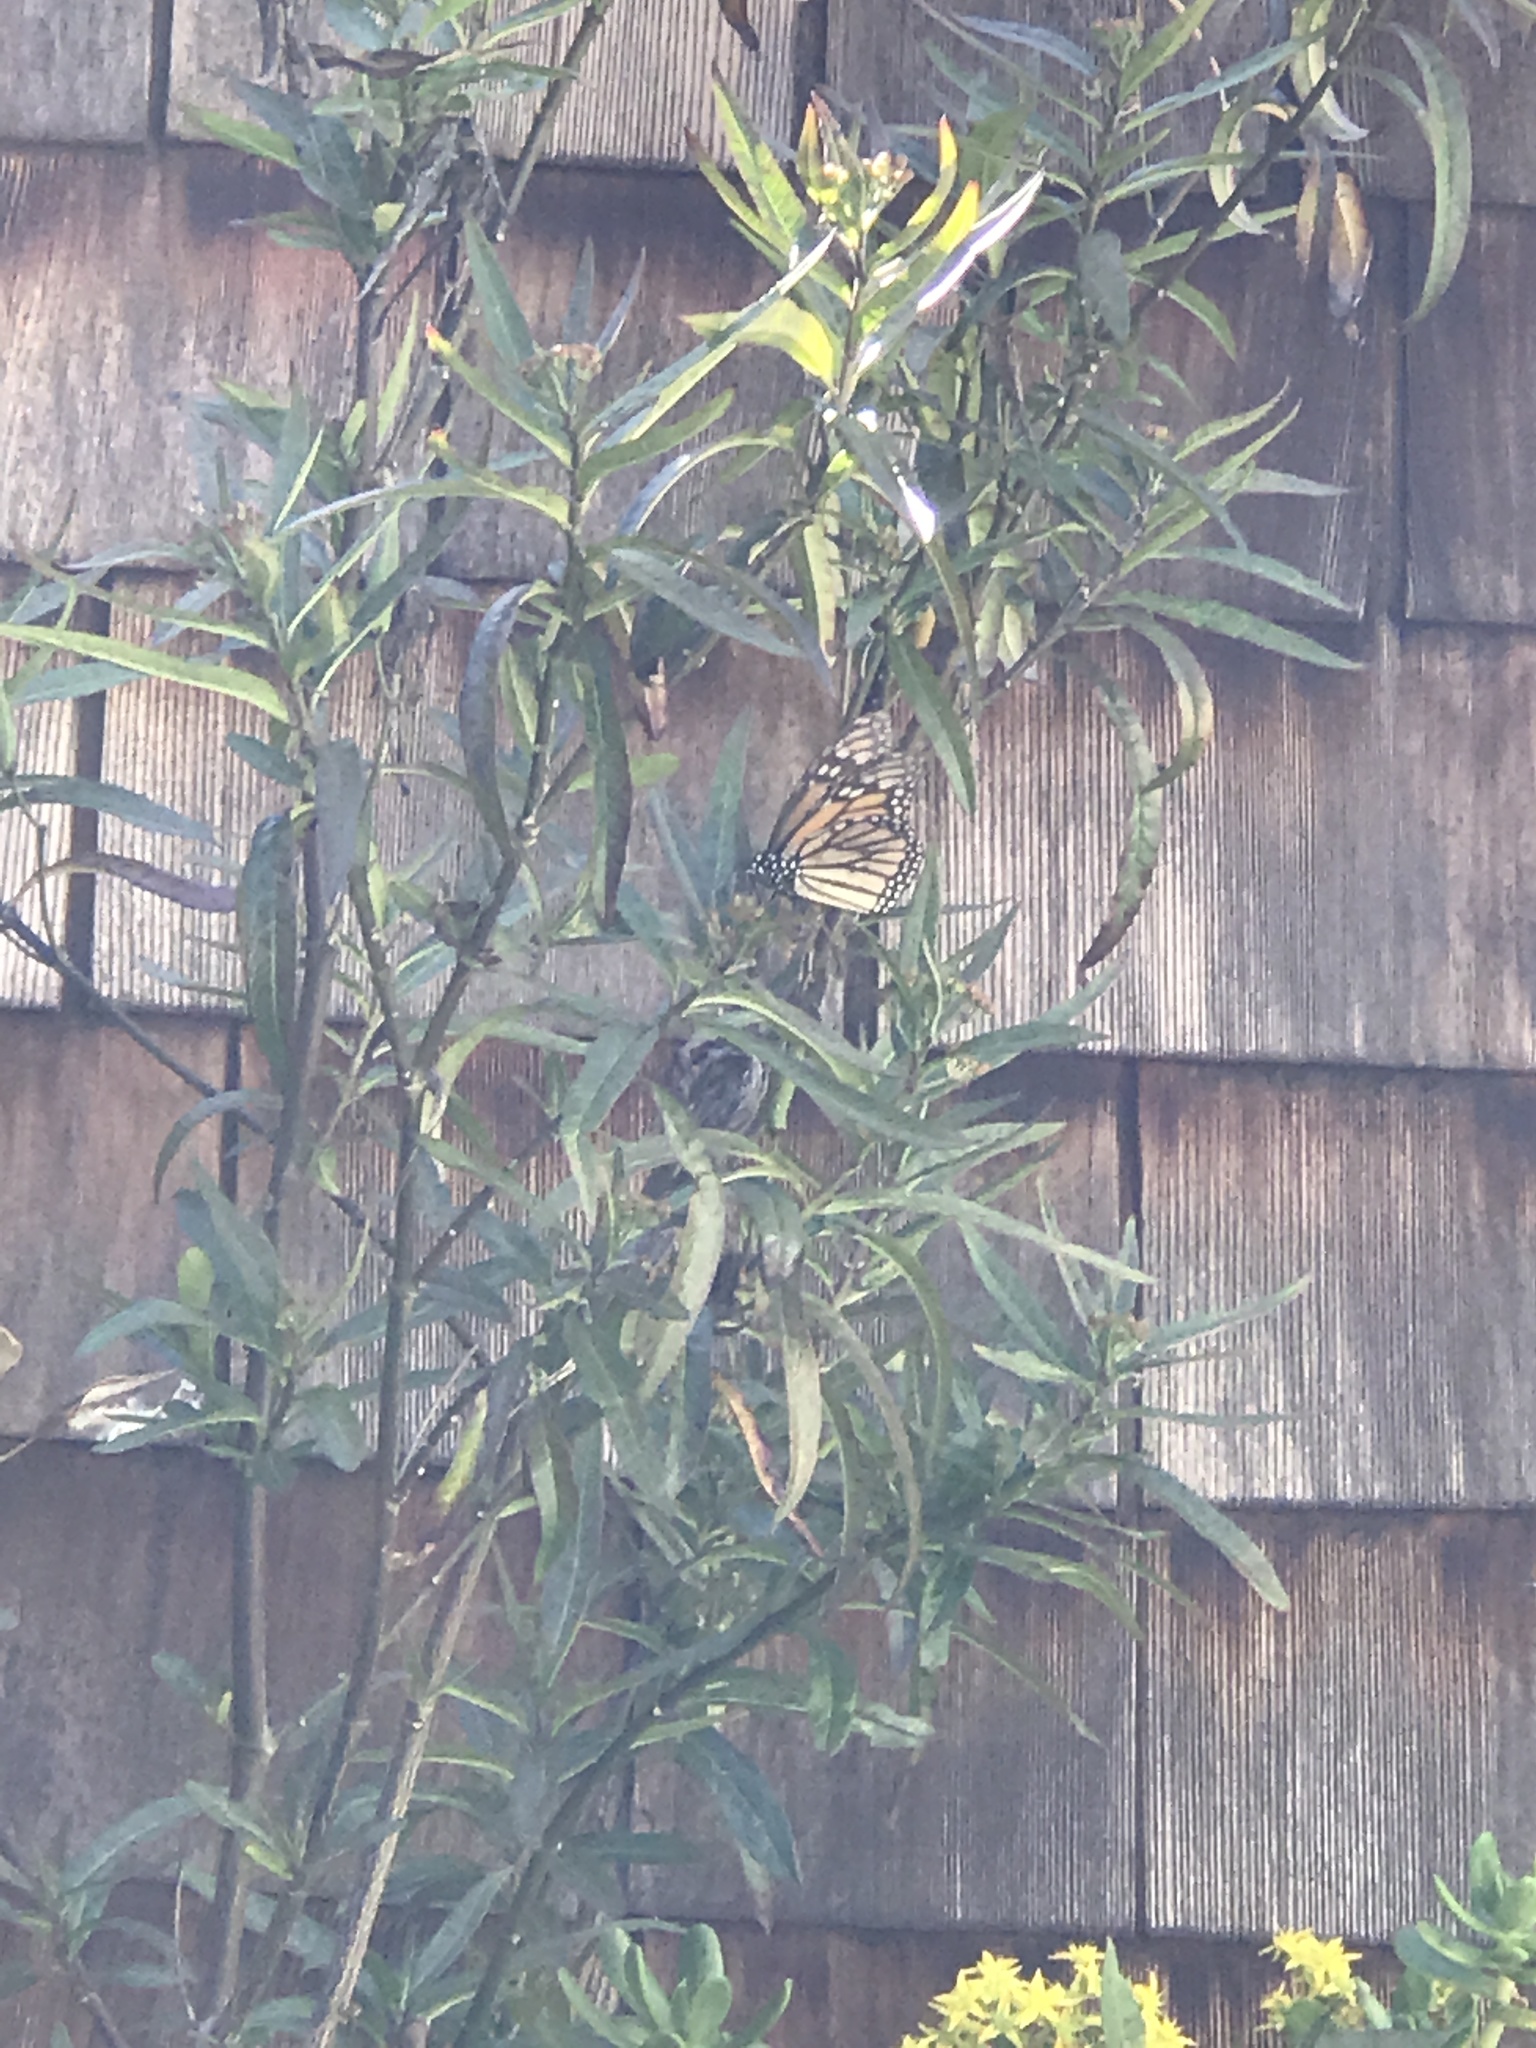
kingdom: Animalia
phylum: Arthropoda
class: Insecta
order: Lepidoptera
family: Nymphalidae
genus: Danaus
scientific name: Danaus plexippus
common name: Monarch
